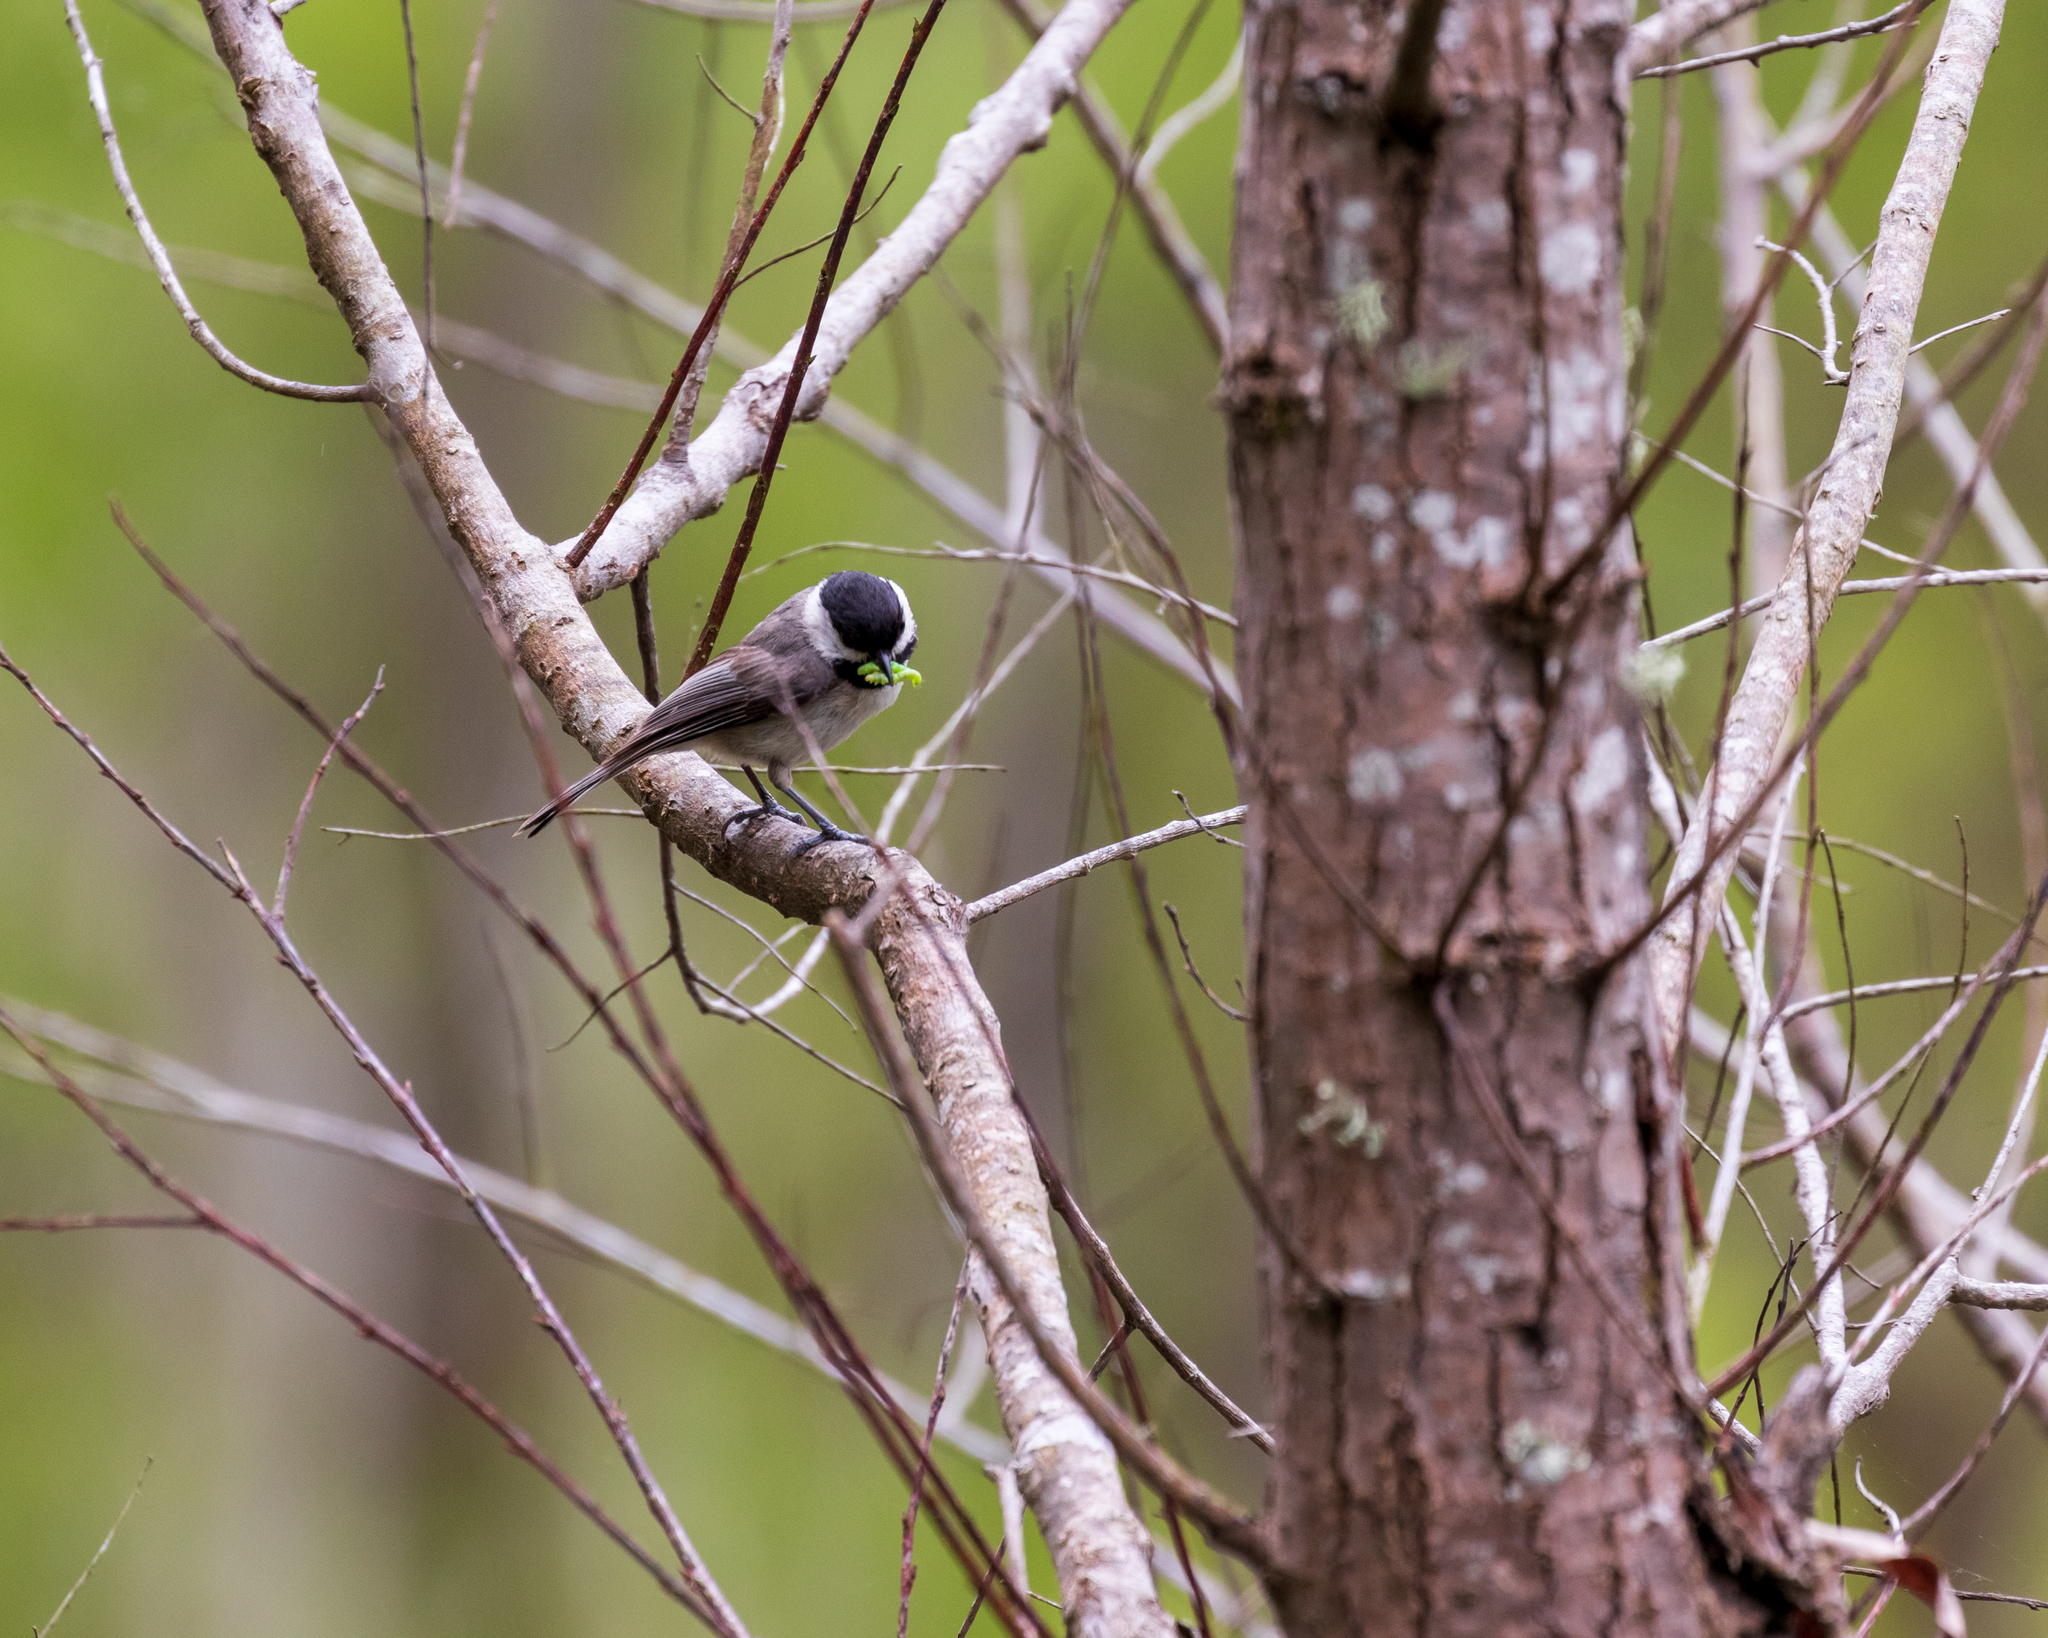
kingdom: Animalia
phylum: Chordata
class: Aves
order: Passeriformes
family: Paridae
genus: Poecile
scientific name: Poecile carolinensis
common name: Carolina chickadee
